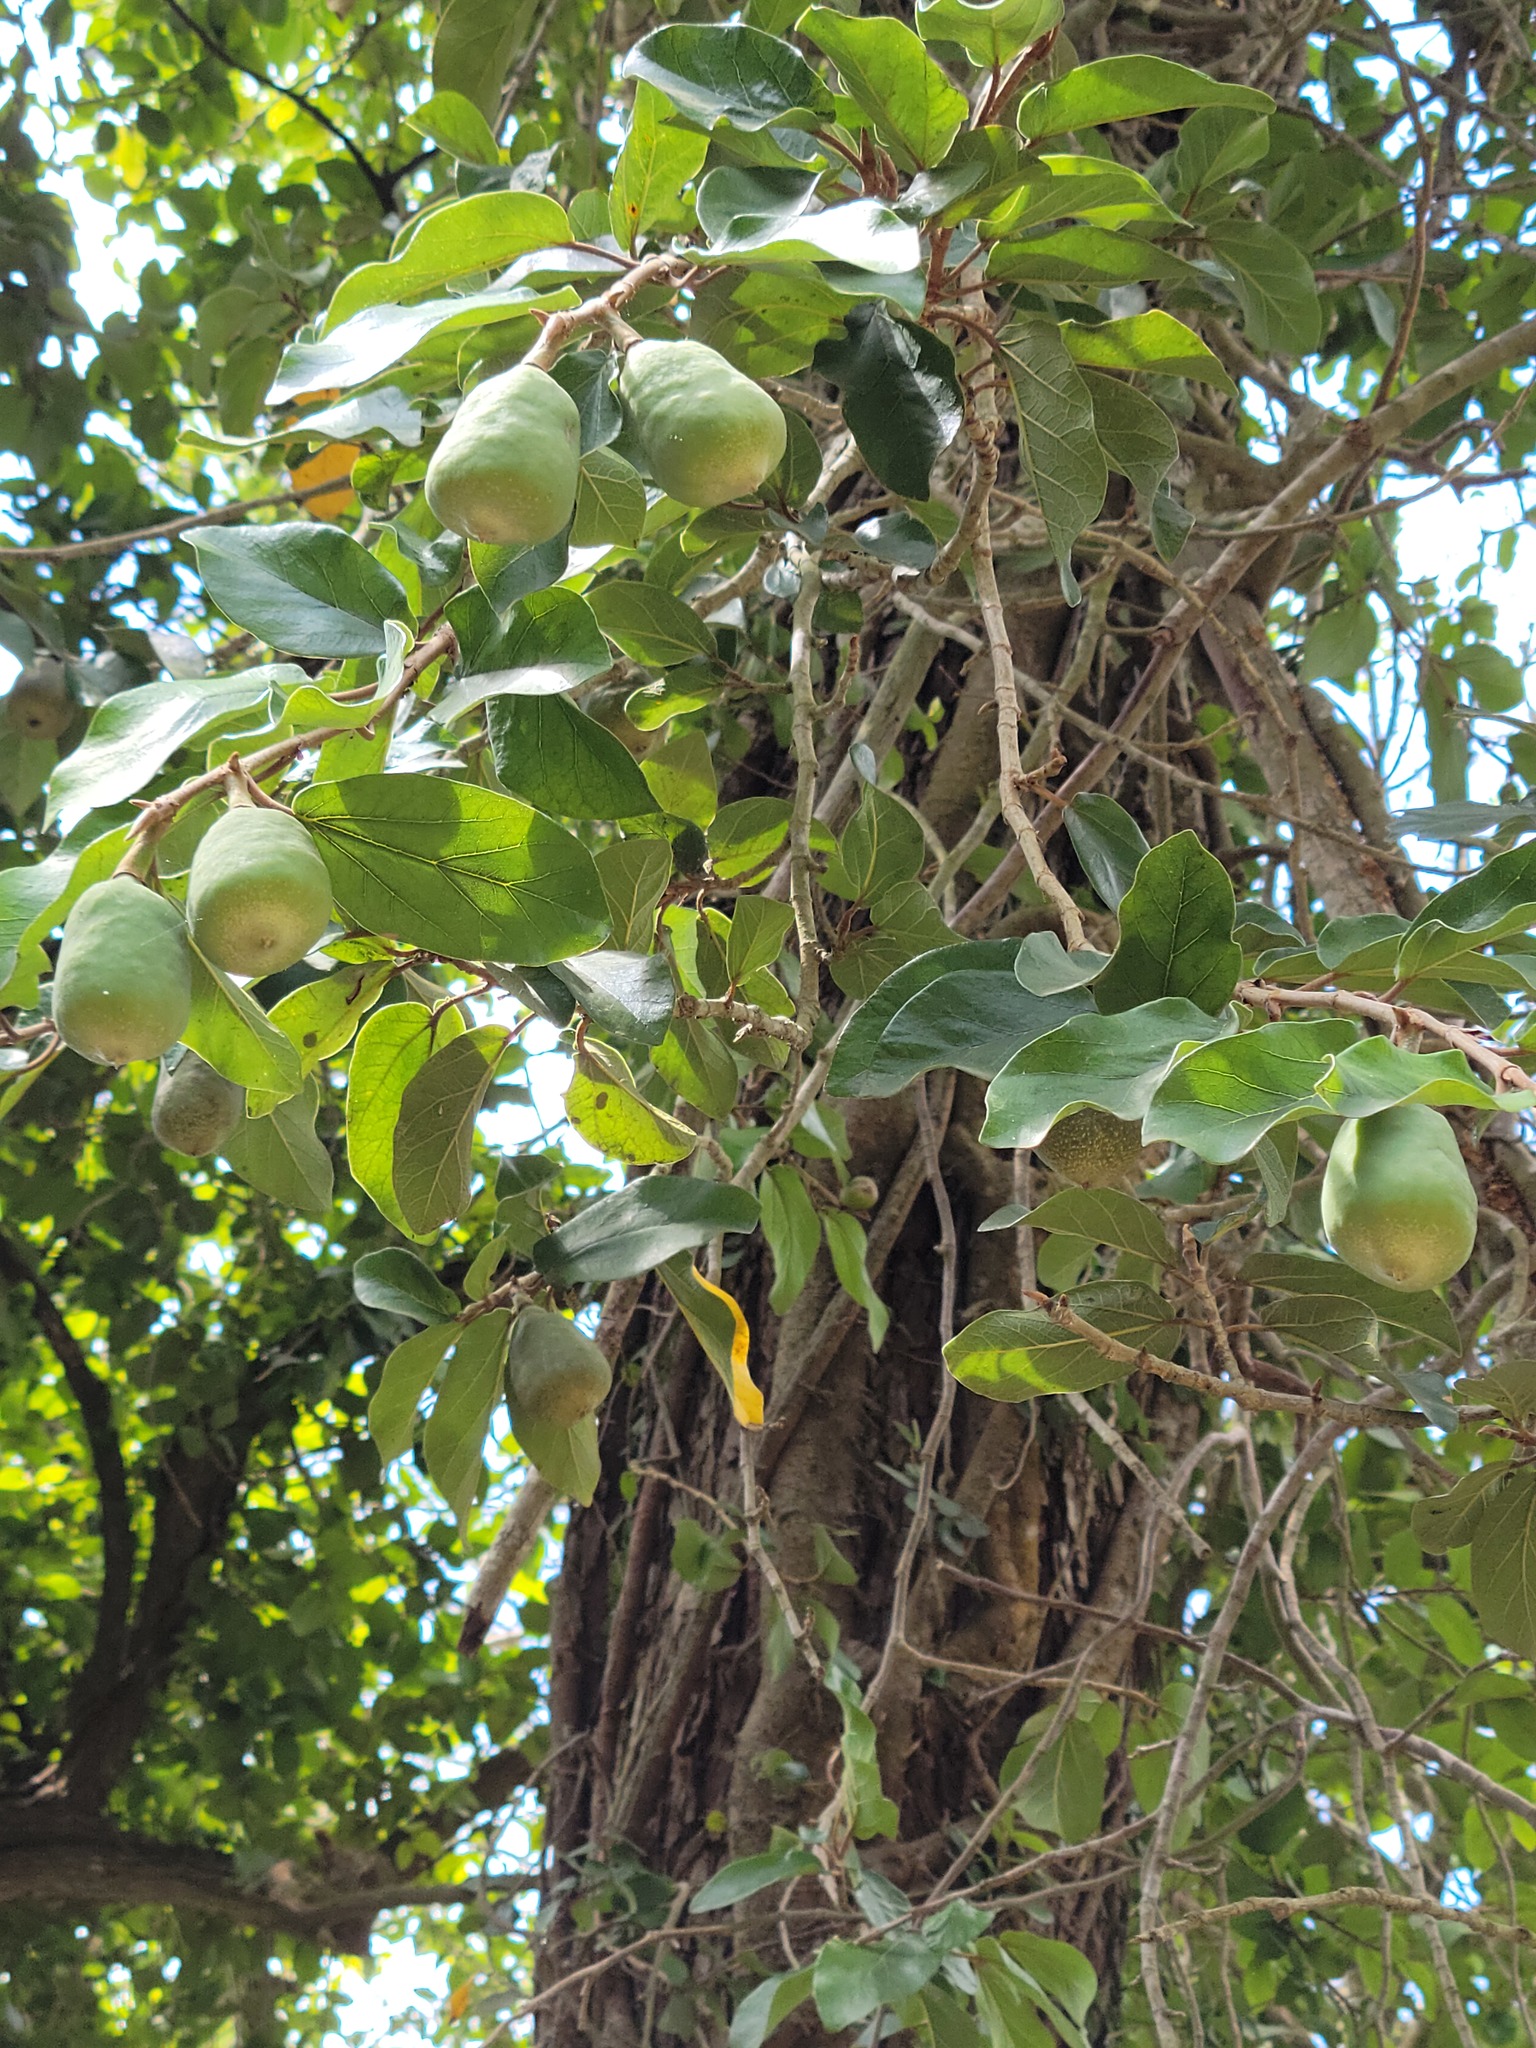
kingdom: Plantae
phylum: Tracheophyta
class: Magnoliopsida
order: Rosales
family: Moraceae
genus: Ficus
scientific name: Ficus pumila
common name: Climbingfig
